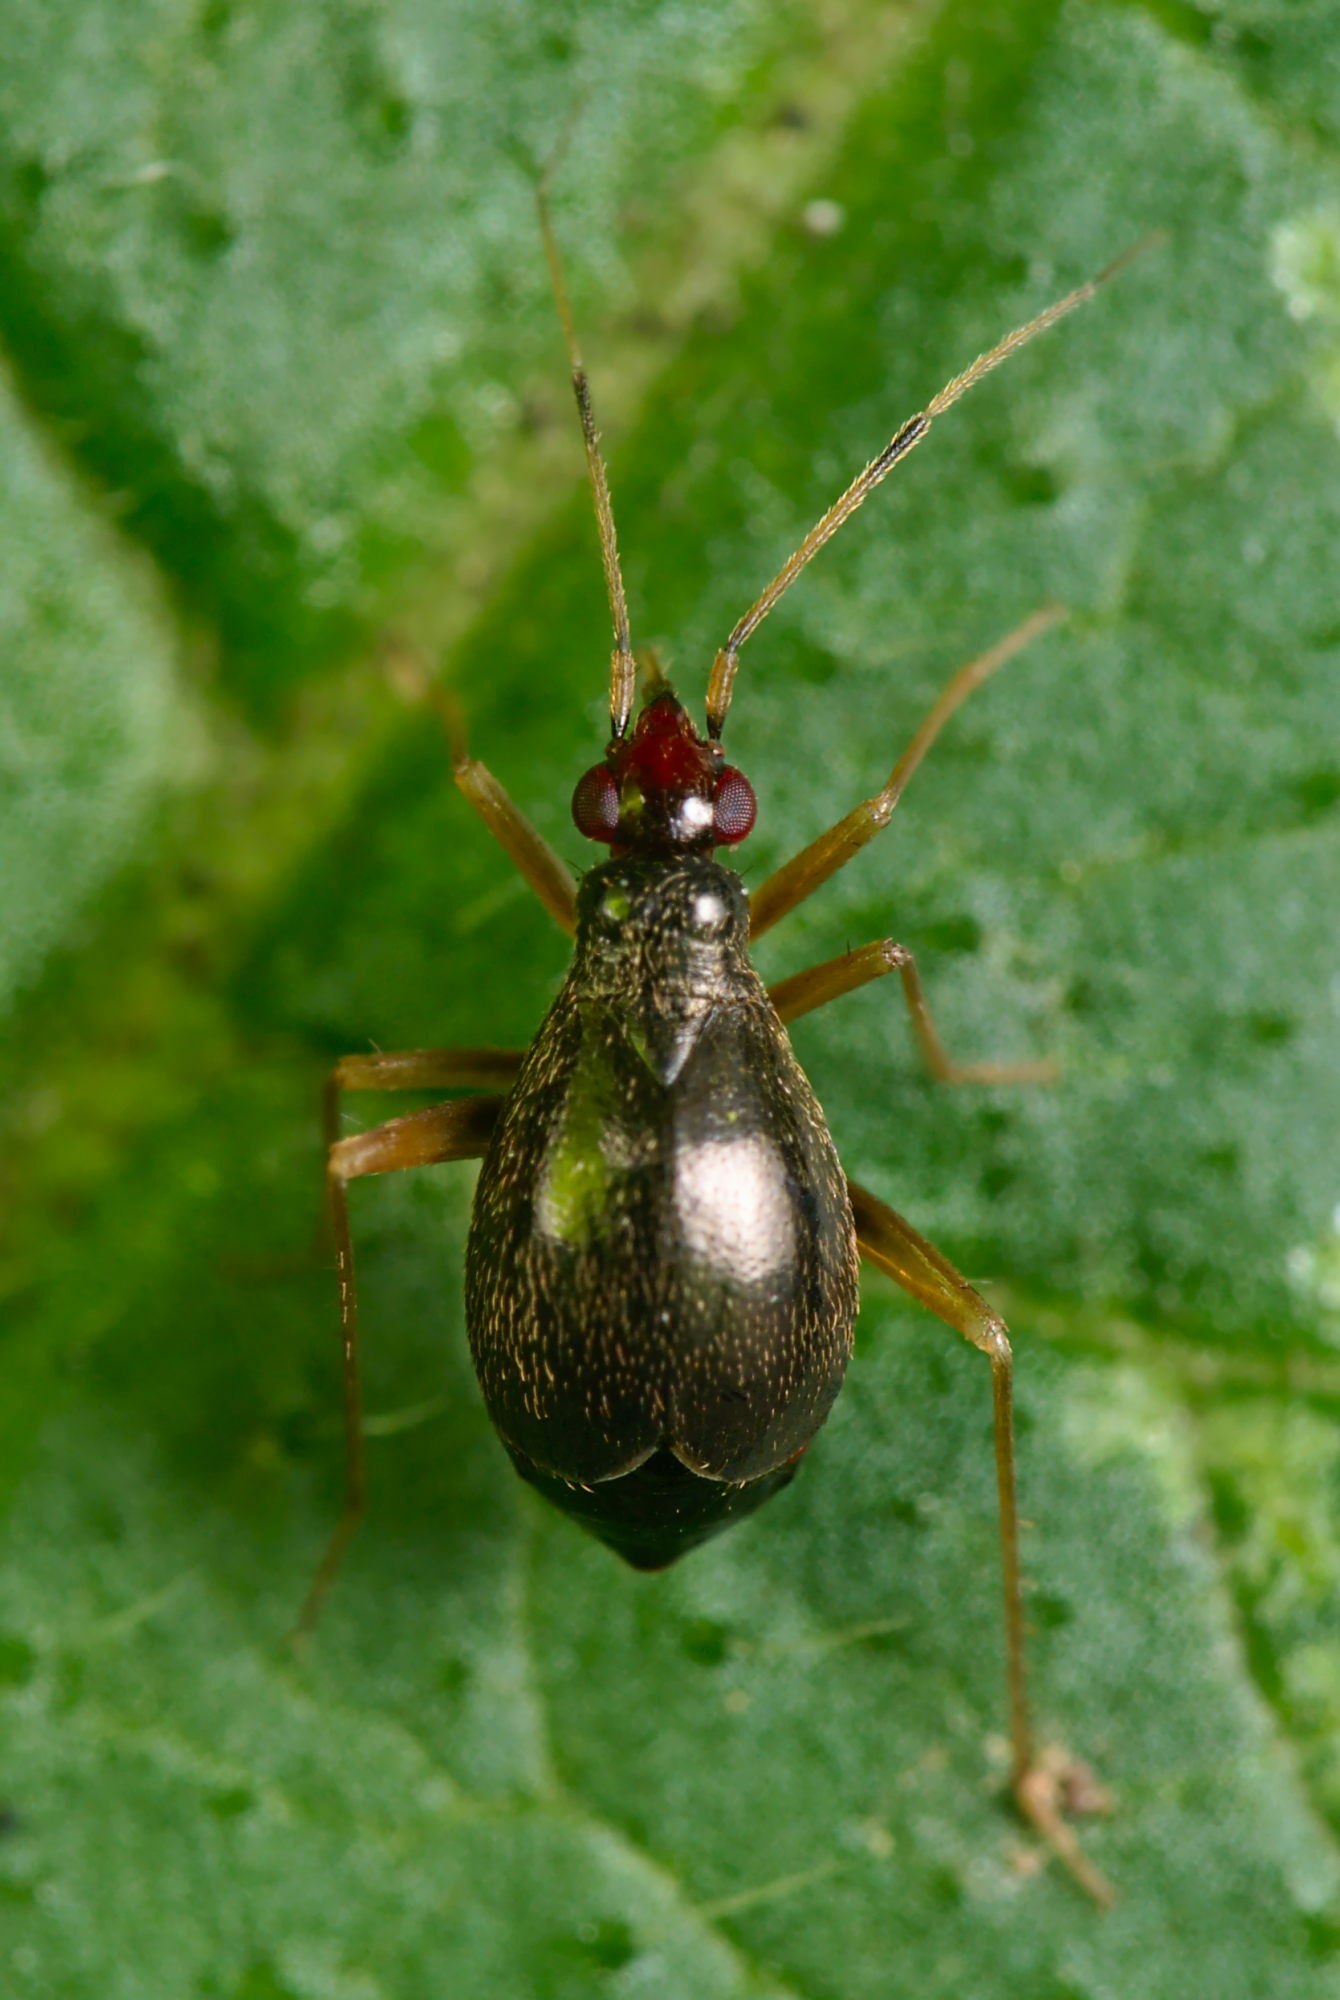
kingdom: Animalia
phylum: Arthropoda
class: Insecta
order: Hemiptera
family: Miridae
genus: Orthonotus
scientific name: Orthonotus rufifrons
